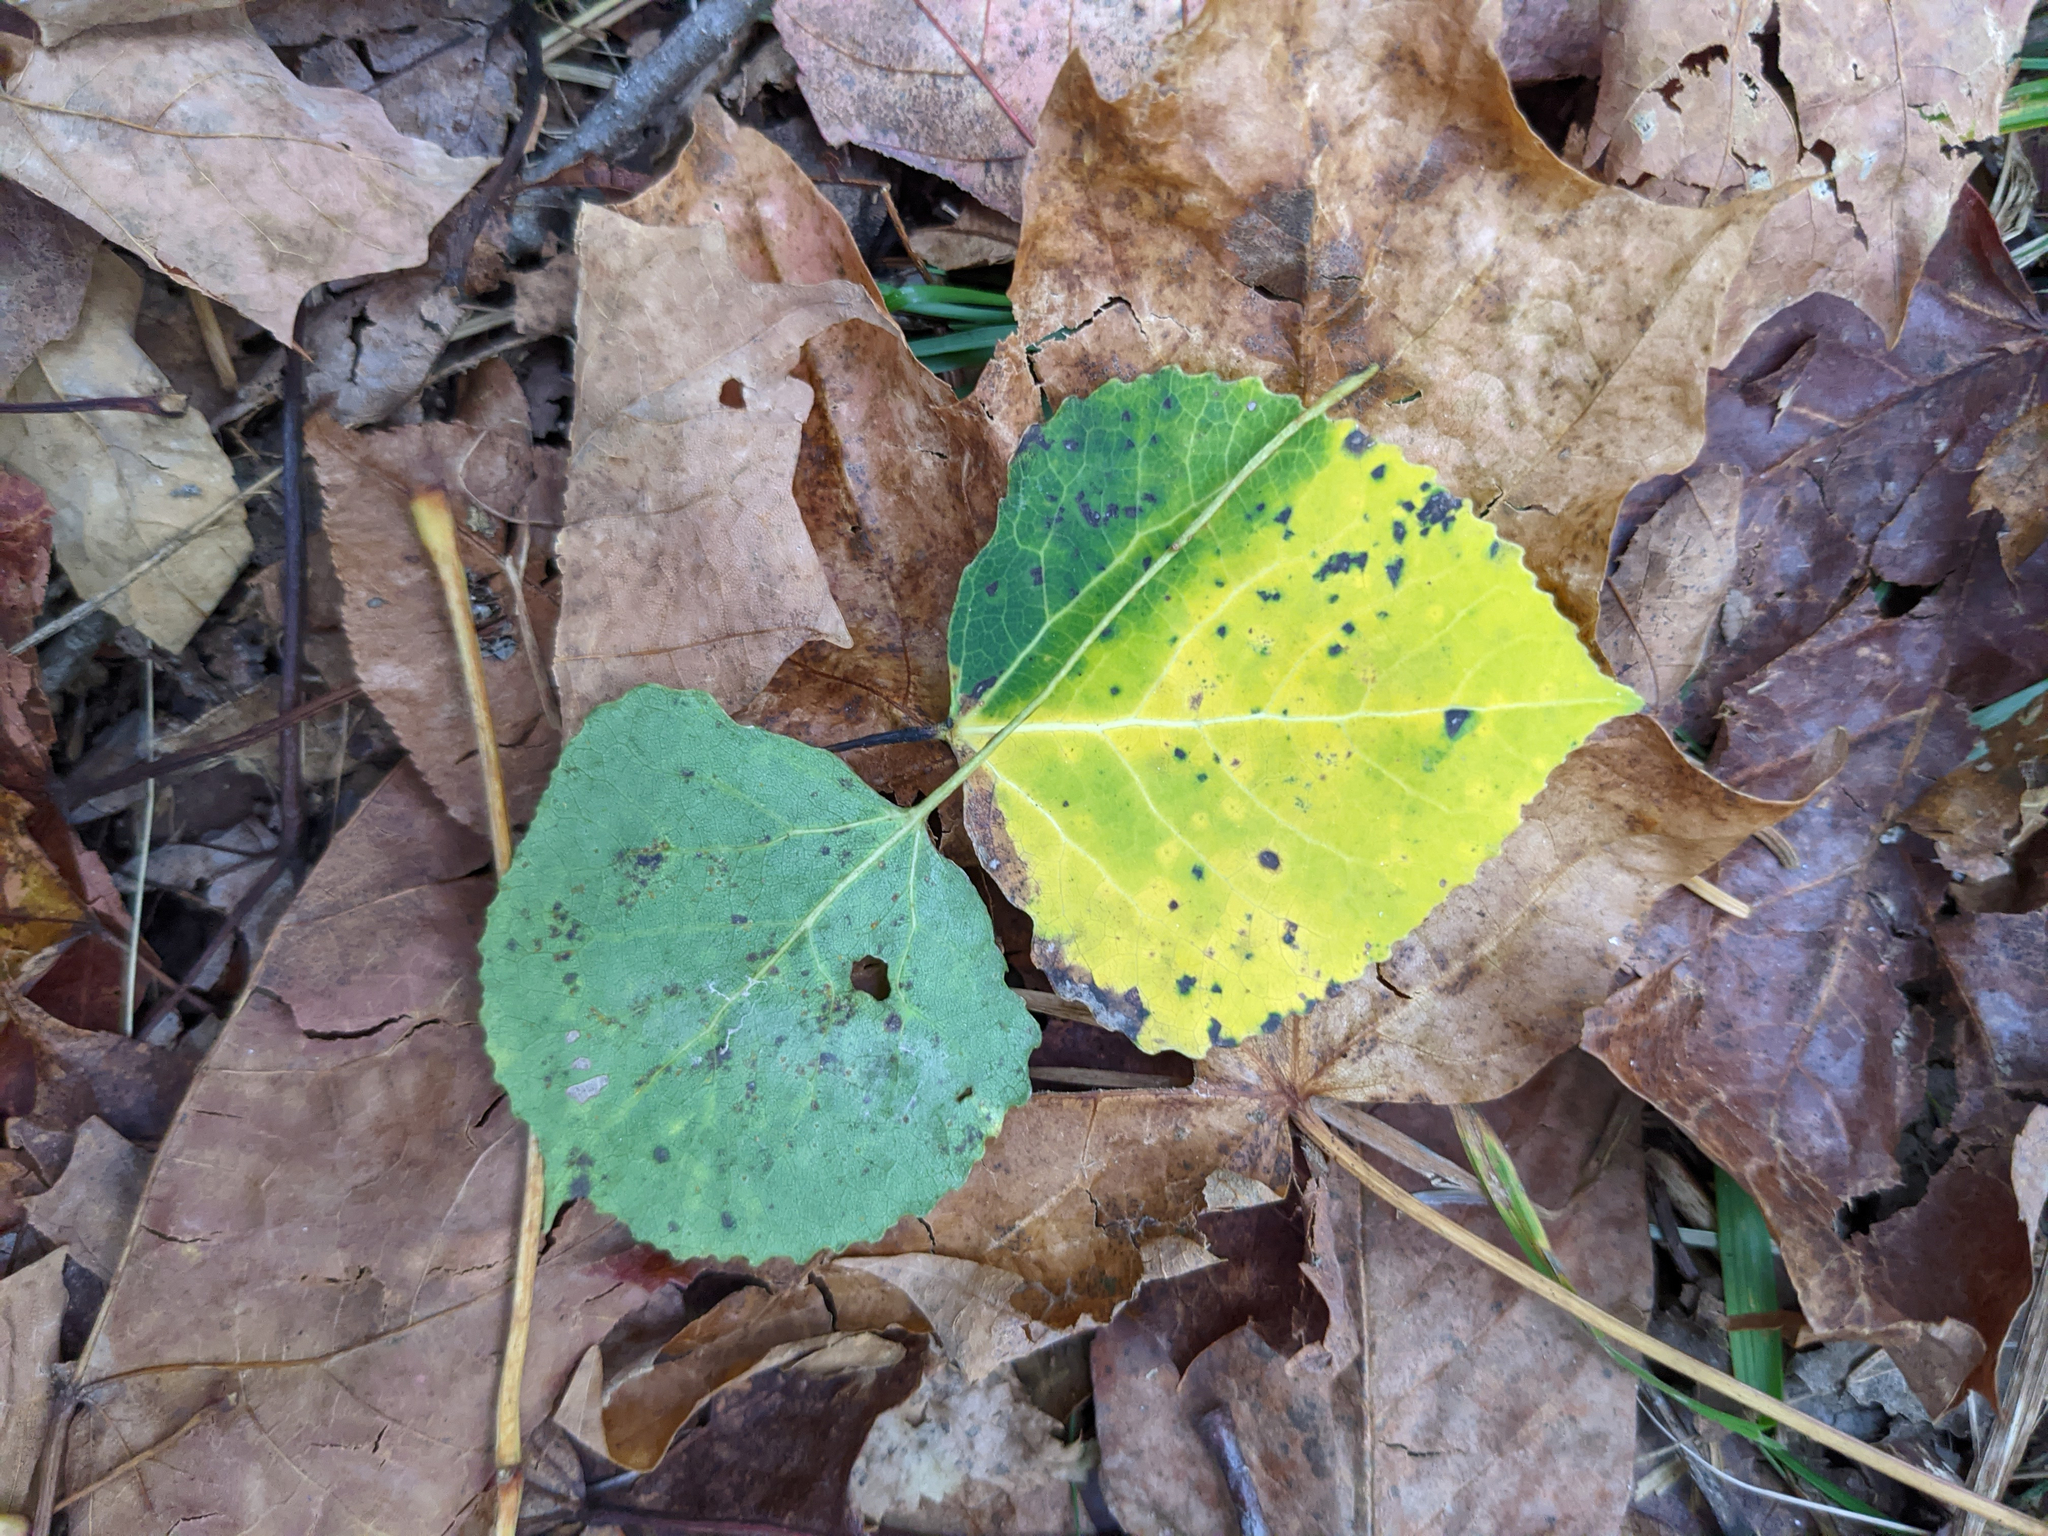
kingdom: Plantae
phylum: Tracheophyta
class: Magnoliopsida
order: Malpighiales
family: Salicaceae
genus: Populus
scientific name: Populus tremuloides
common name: Quaking aspen
